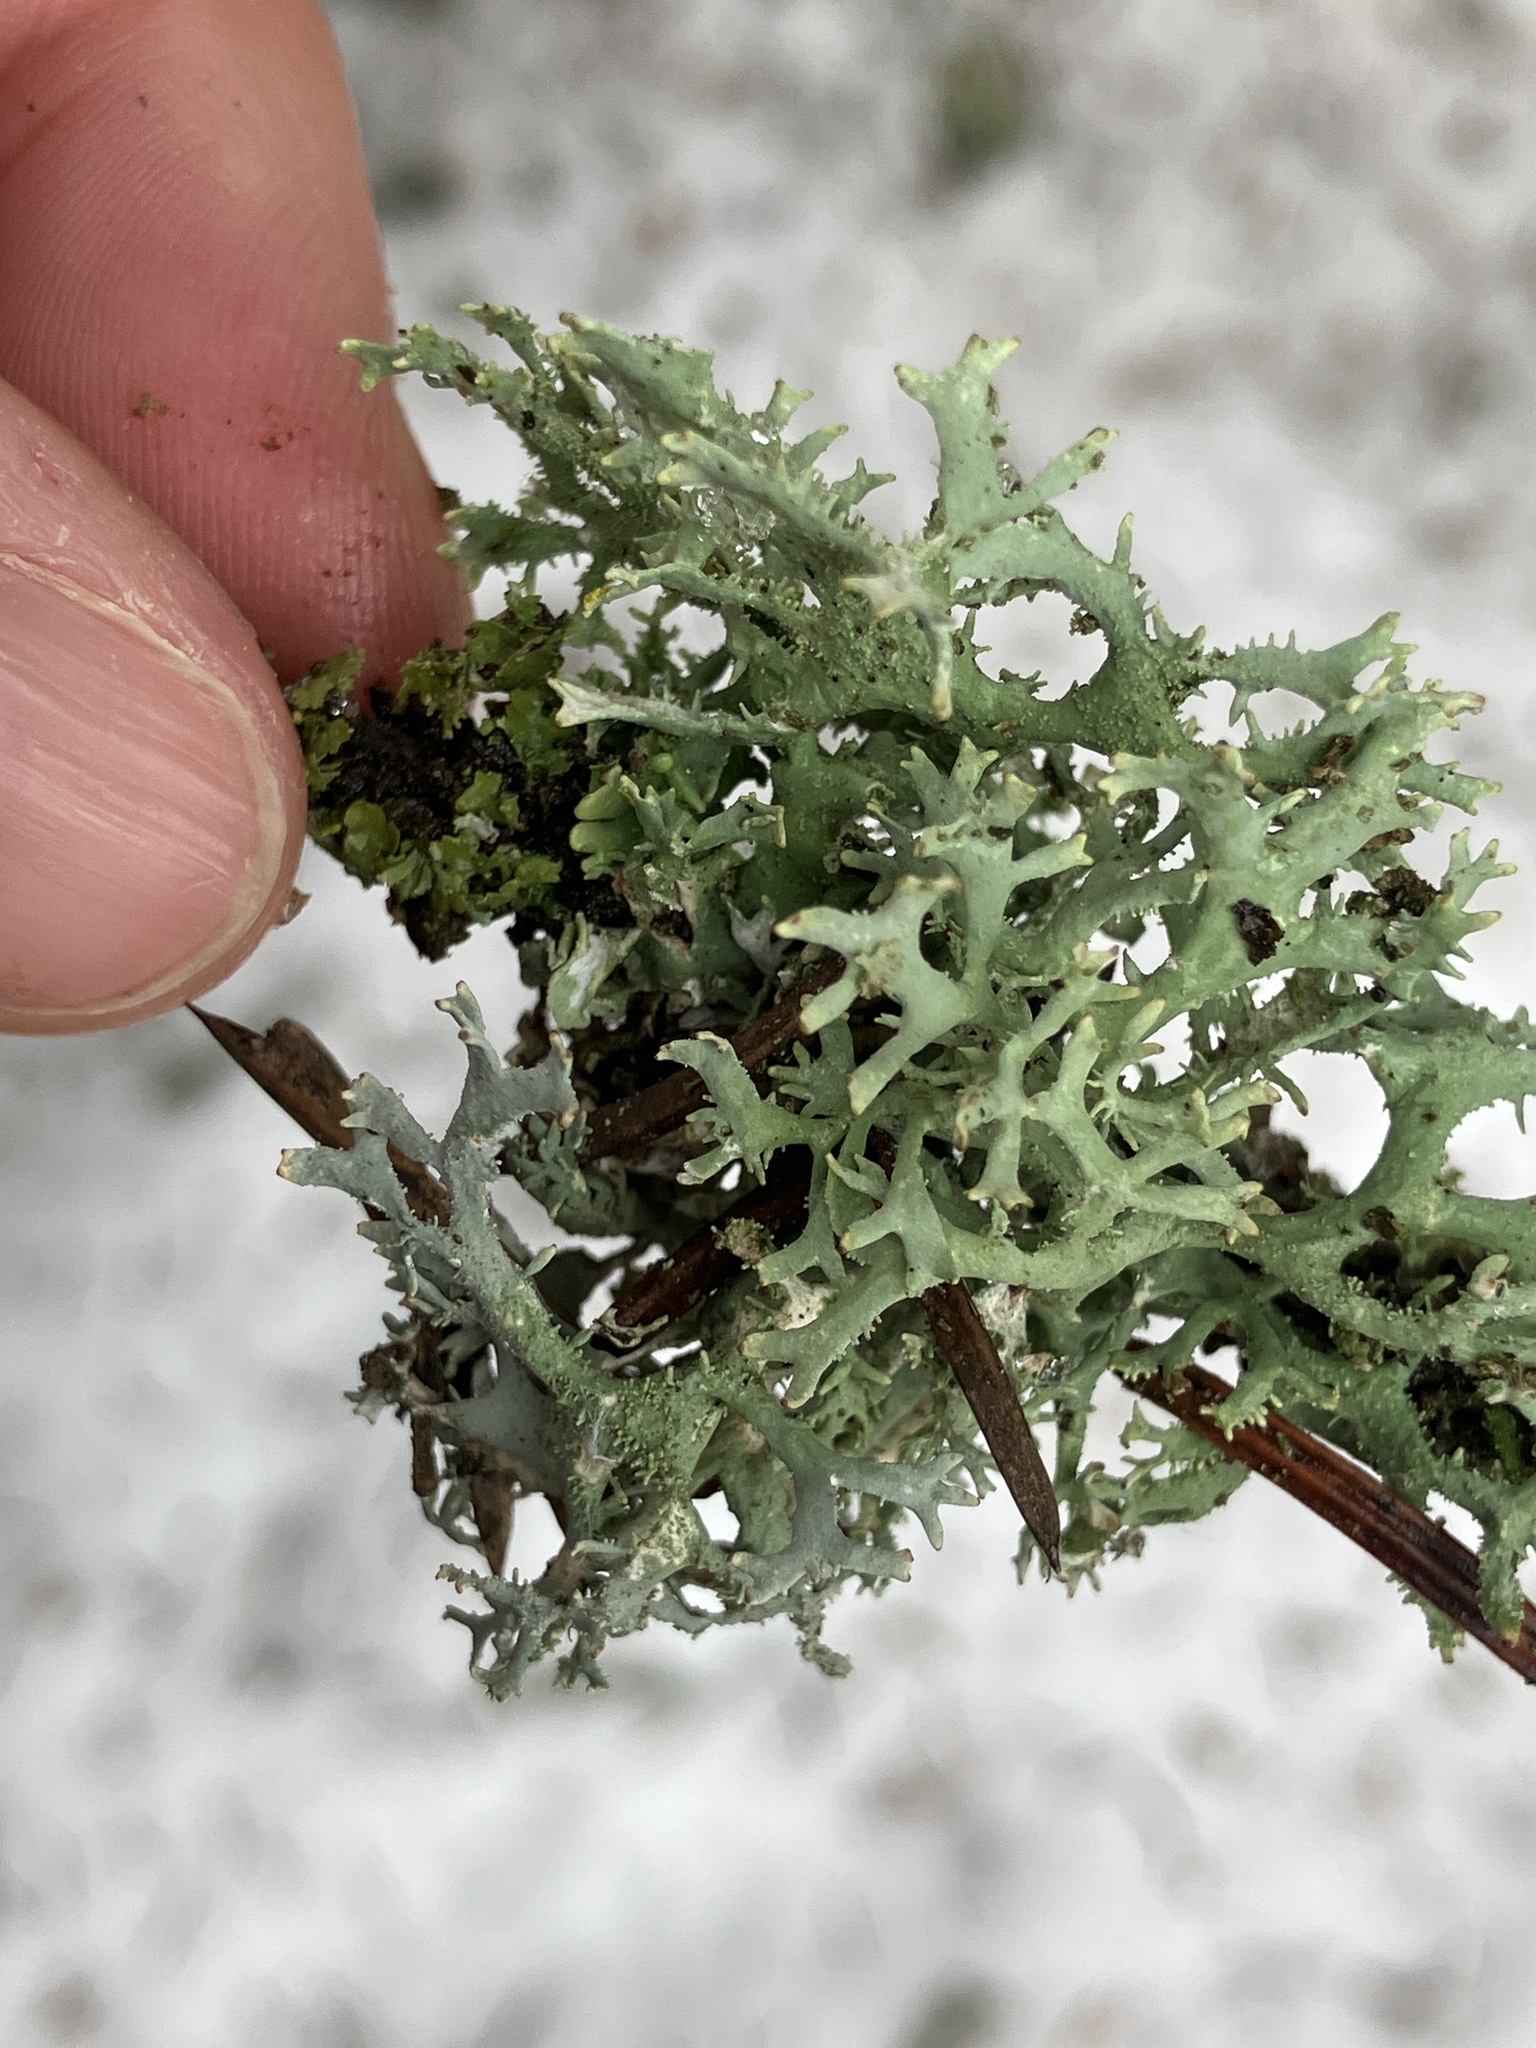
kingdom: Fungi
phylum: Ascomycota
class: Lecanoromycetes
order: Lecanorales
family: Parmeliaceae
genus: Pseudevernia
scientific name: Pseudevernia furfuracea
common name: Tree moss
